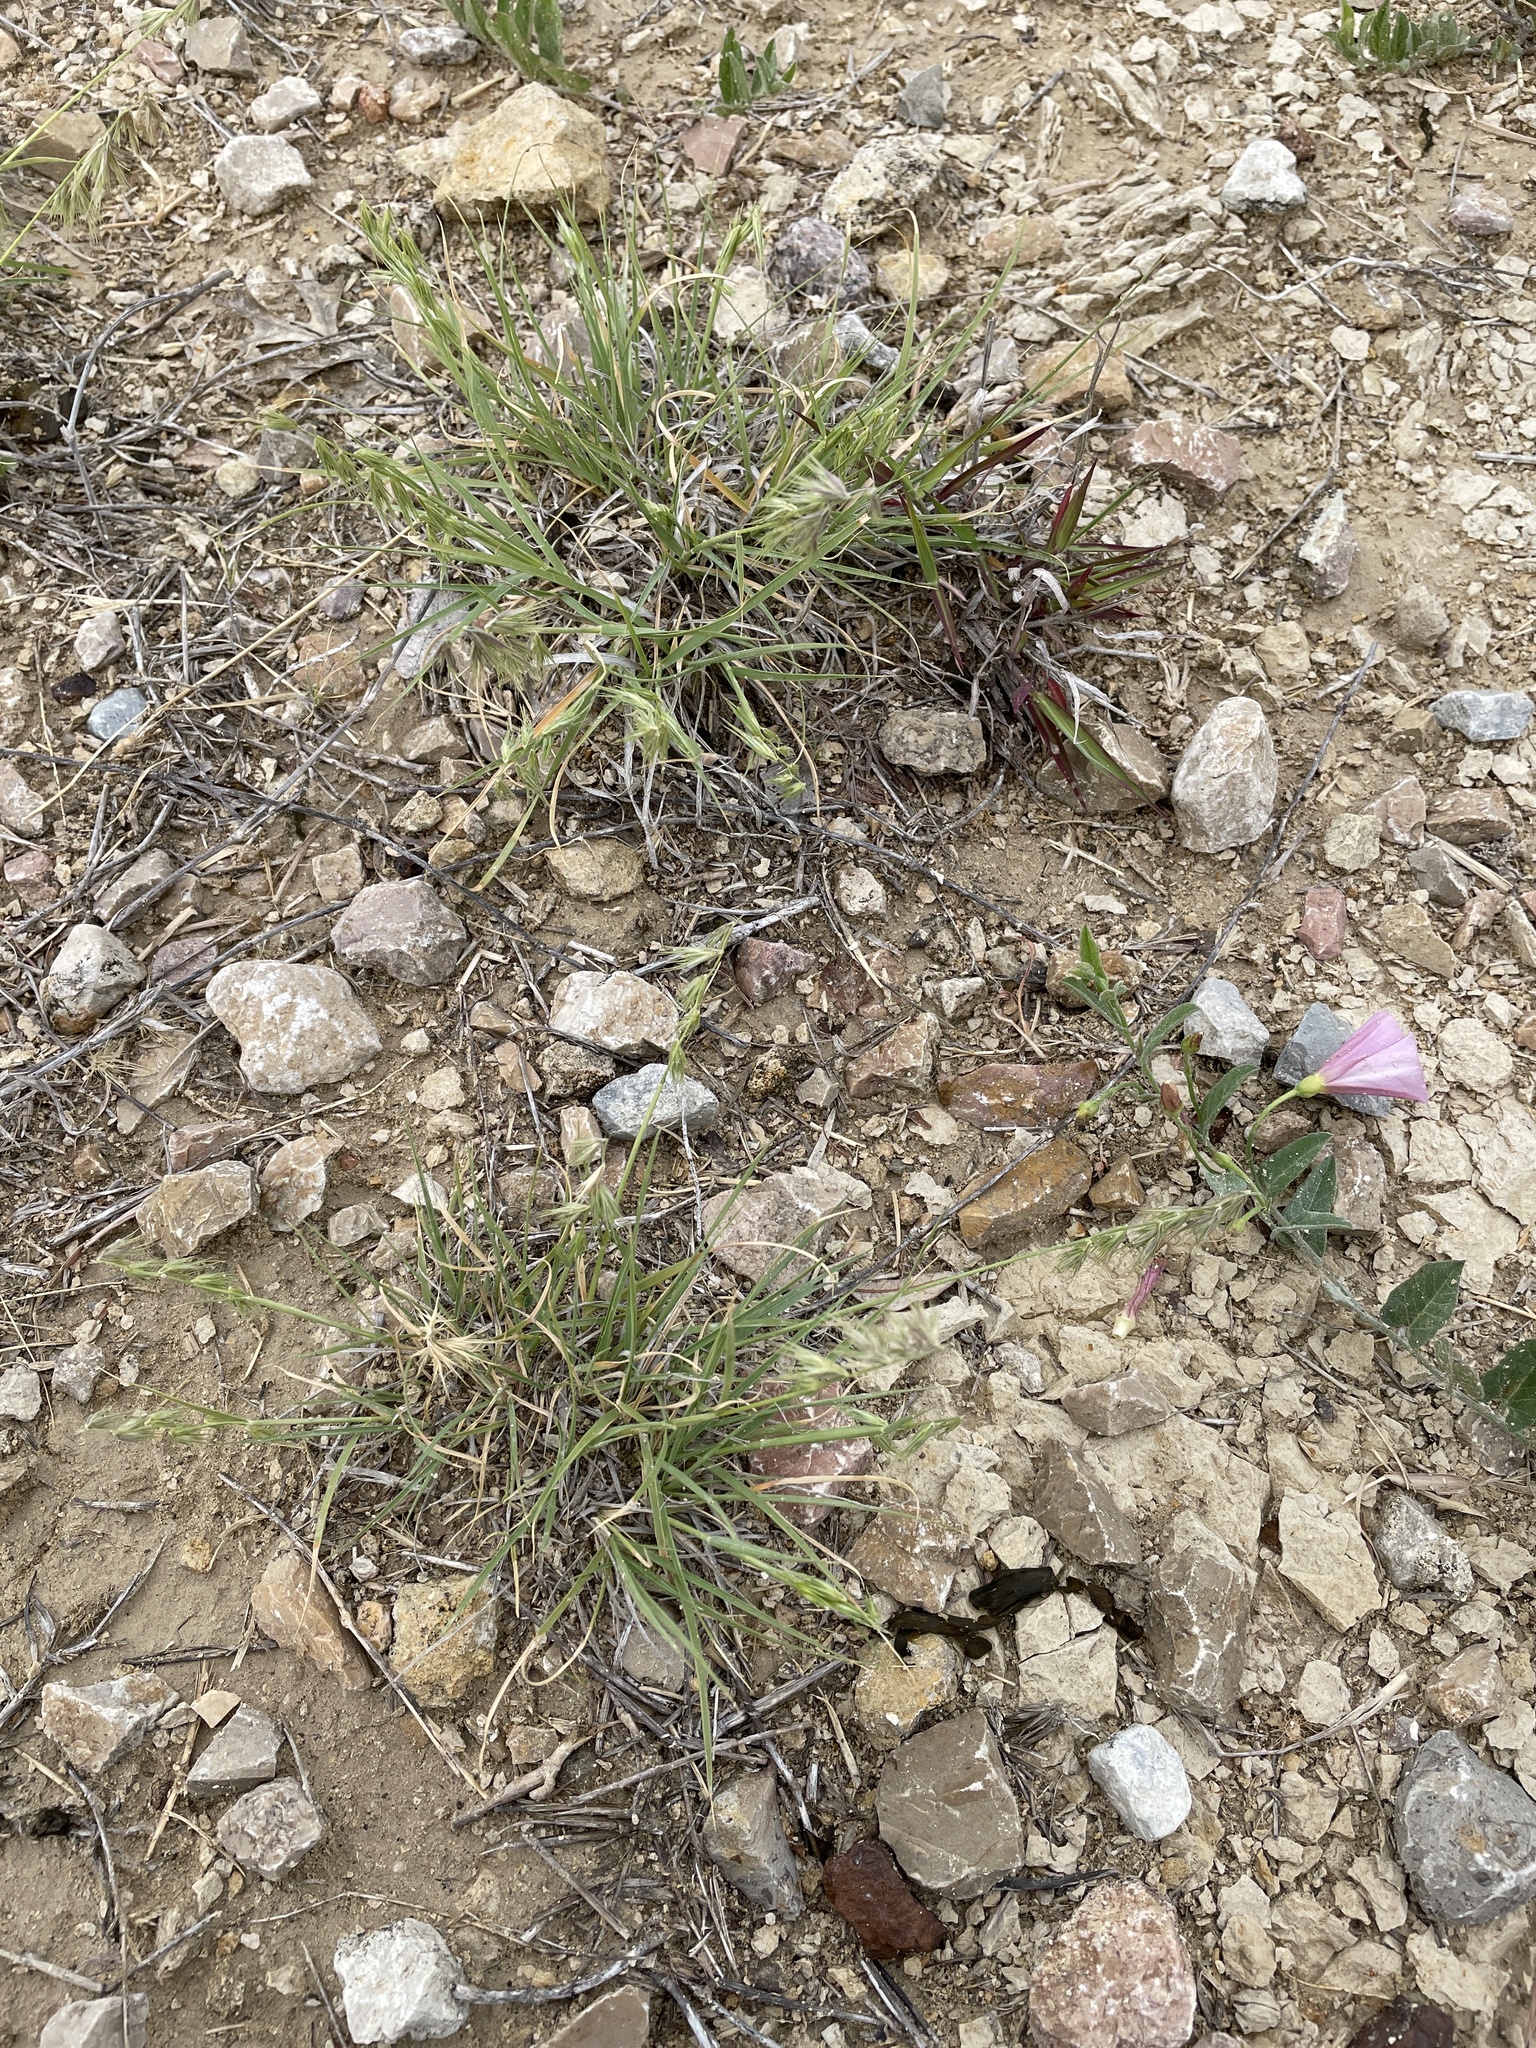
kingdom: Plantae
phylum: Tracheophyta
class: Liliopsida
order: Poales
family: Poaceae
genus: Bouteloua
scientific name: Bouteloua rigidiseta
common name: Texas grama
